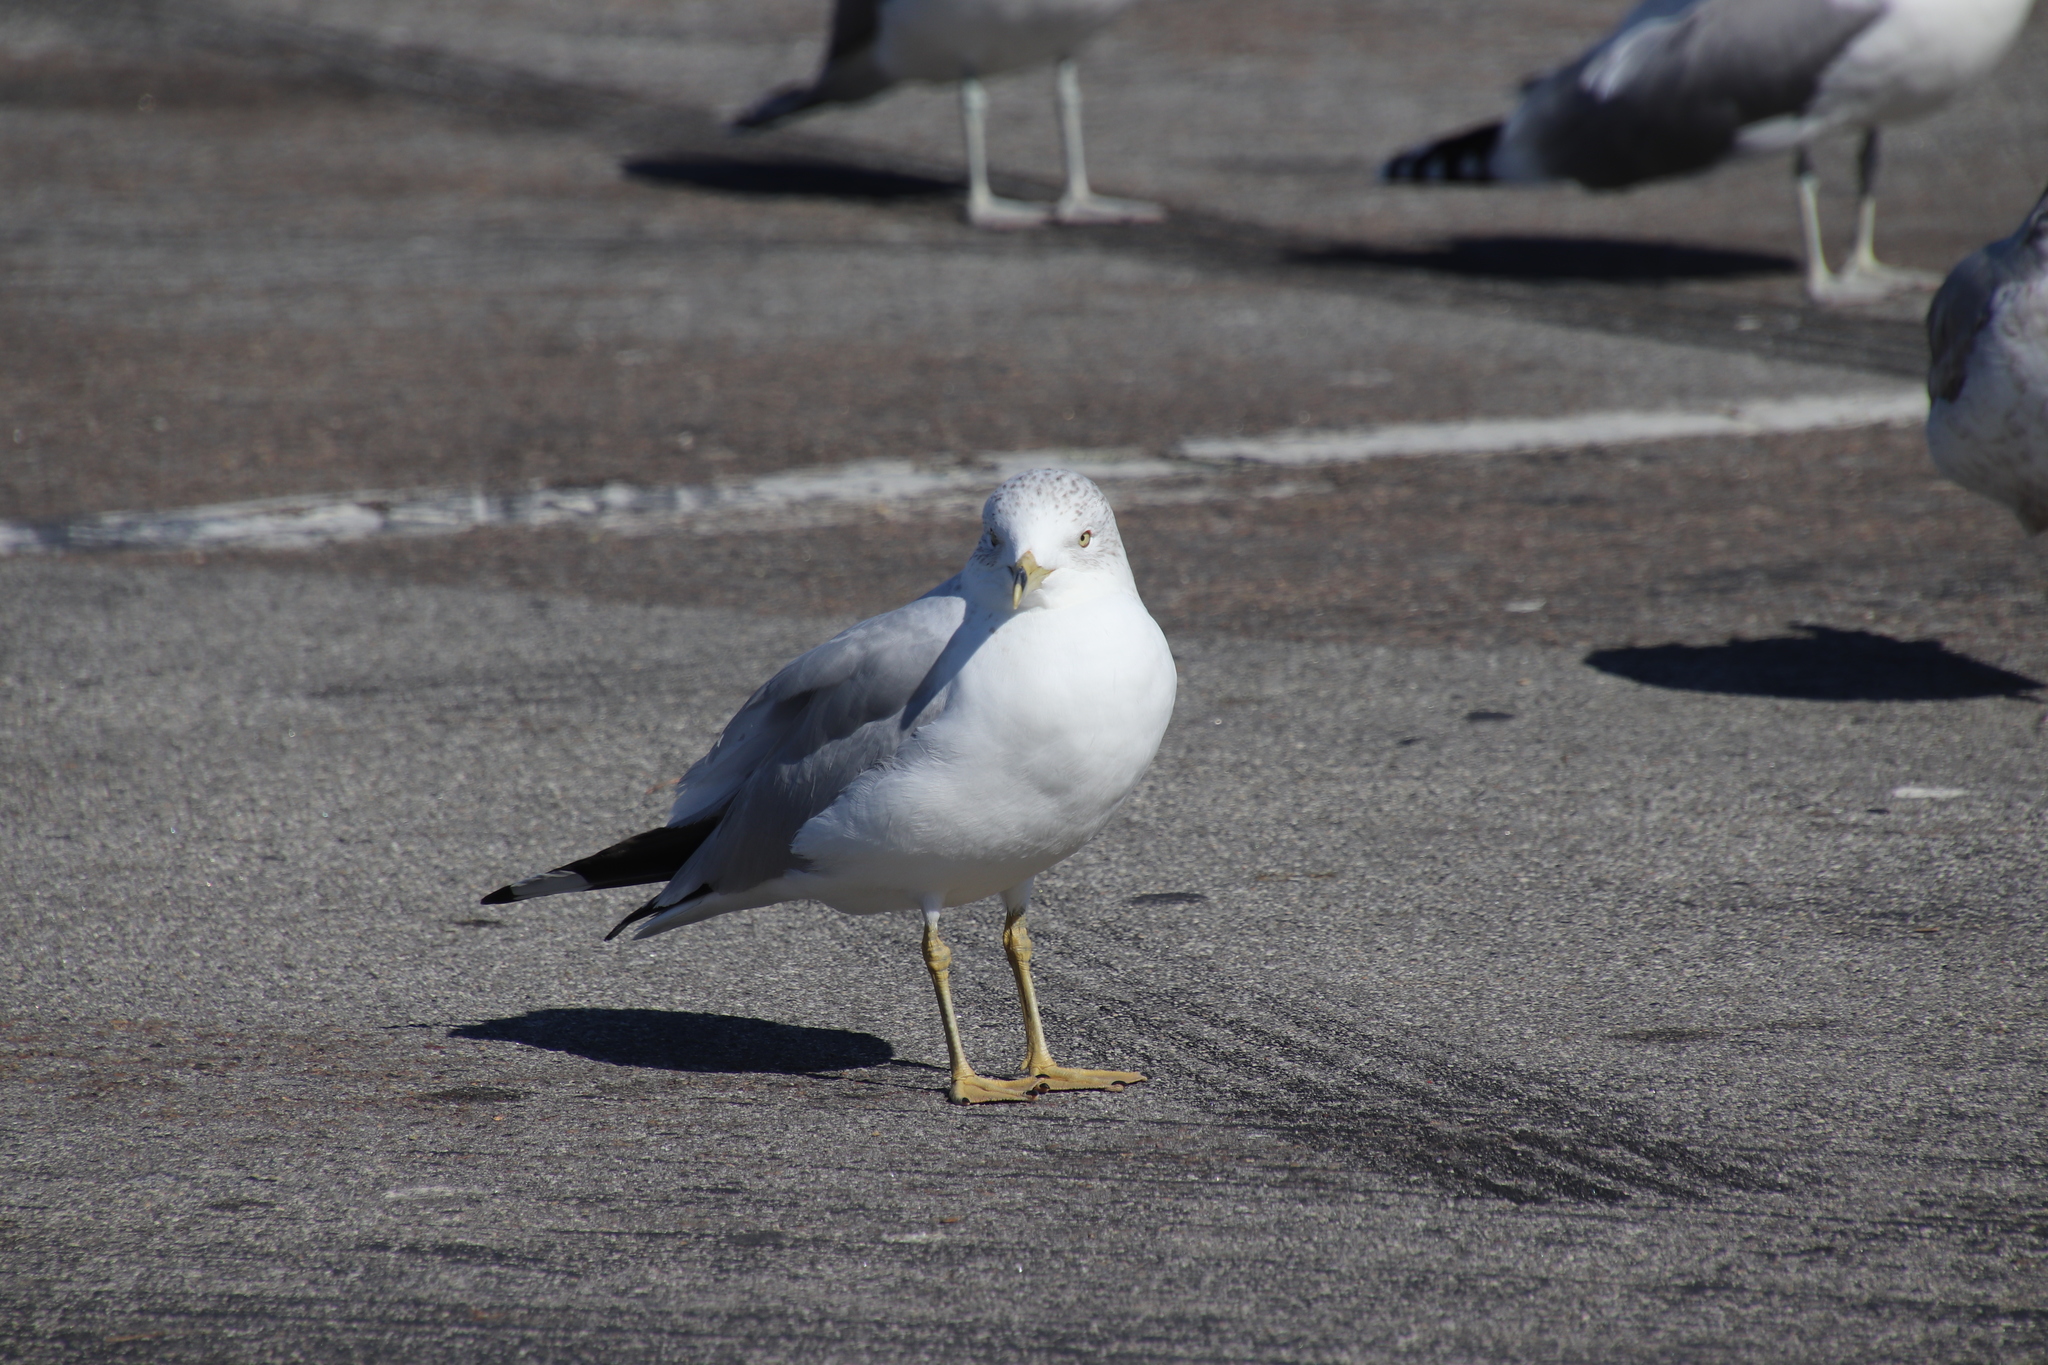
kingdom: Animalia
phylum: Chordata
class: Aves
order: Charadriiformes
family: Laridae
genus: Larus
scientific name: Larus delawarensis
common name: Ring-billed gull
